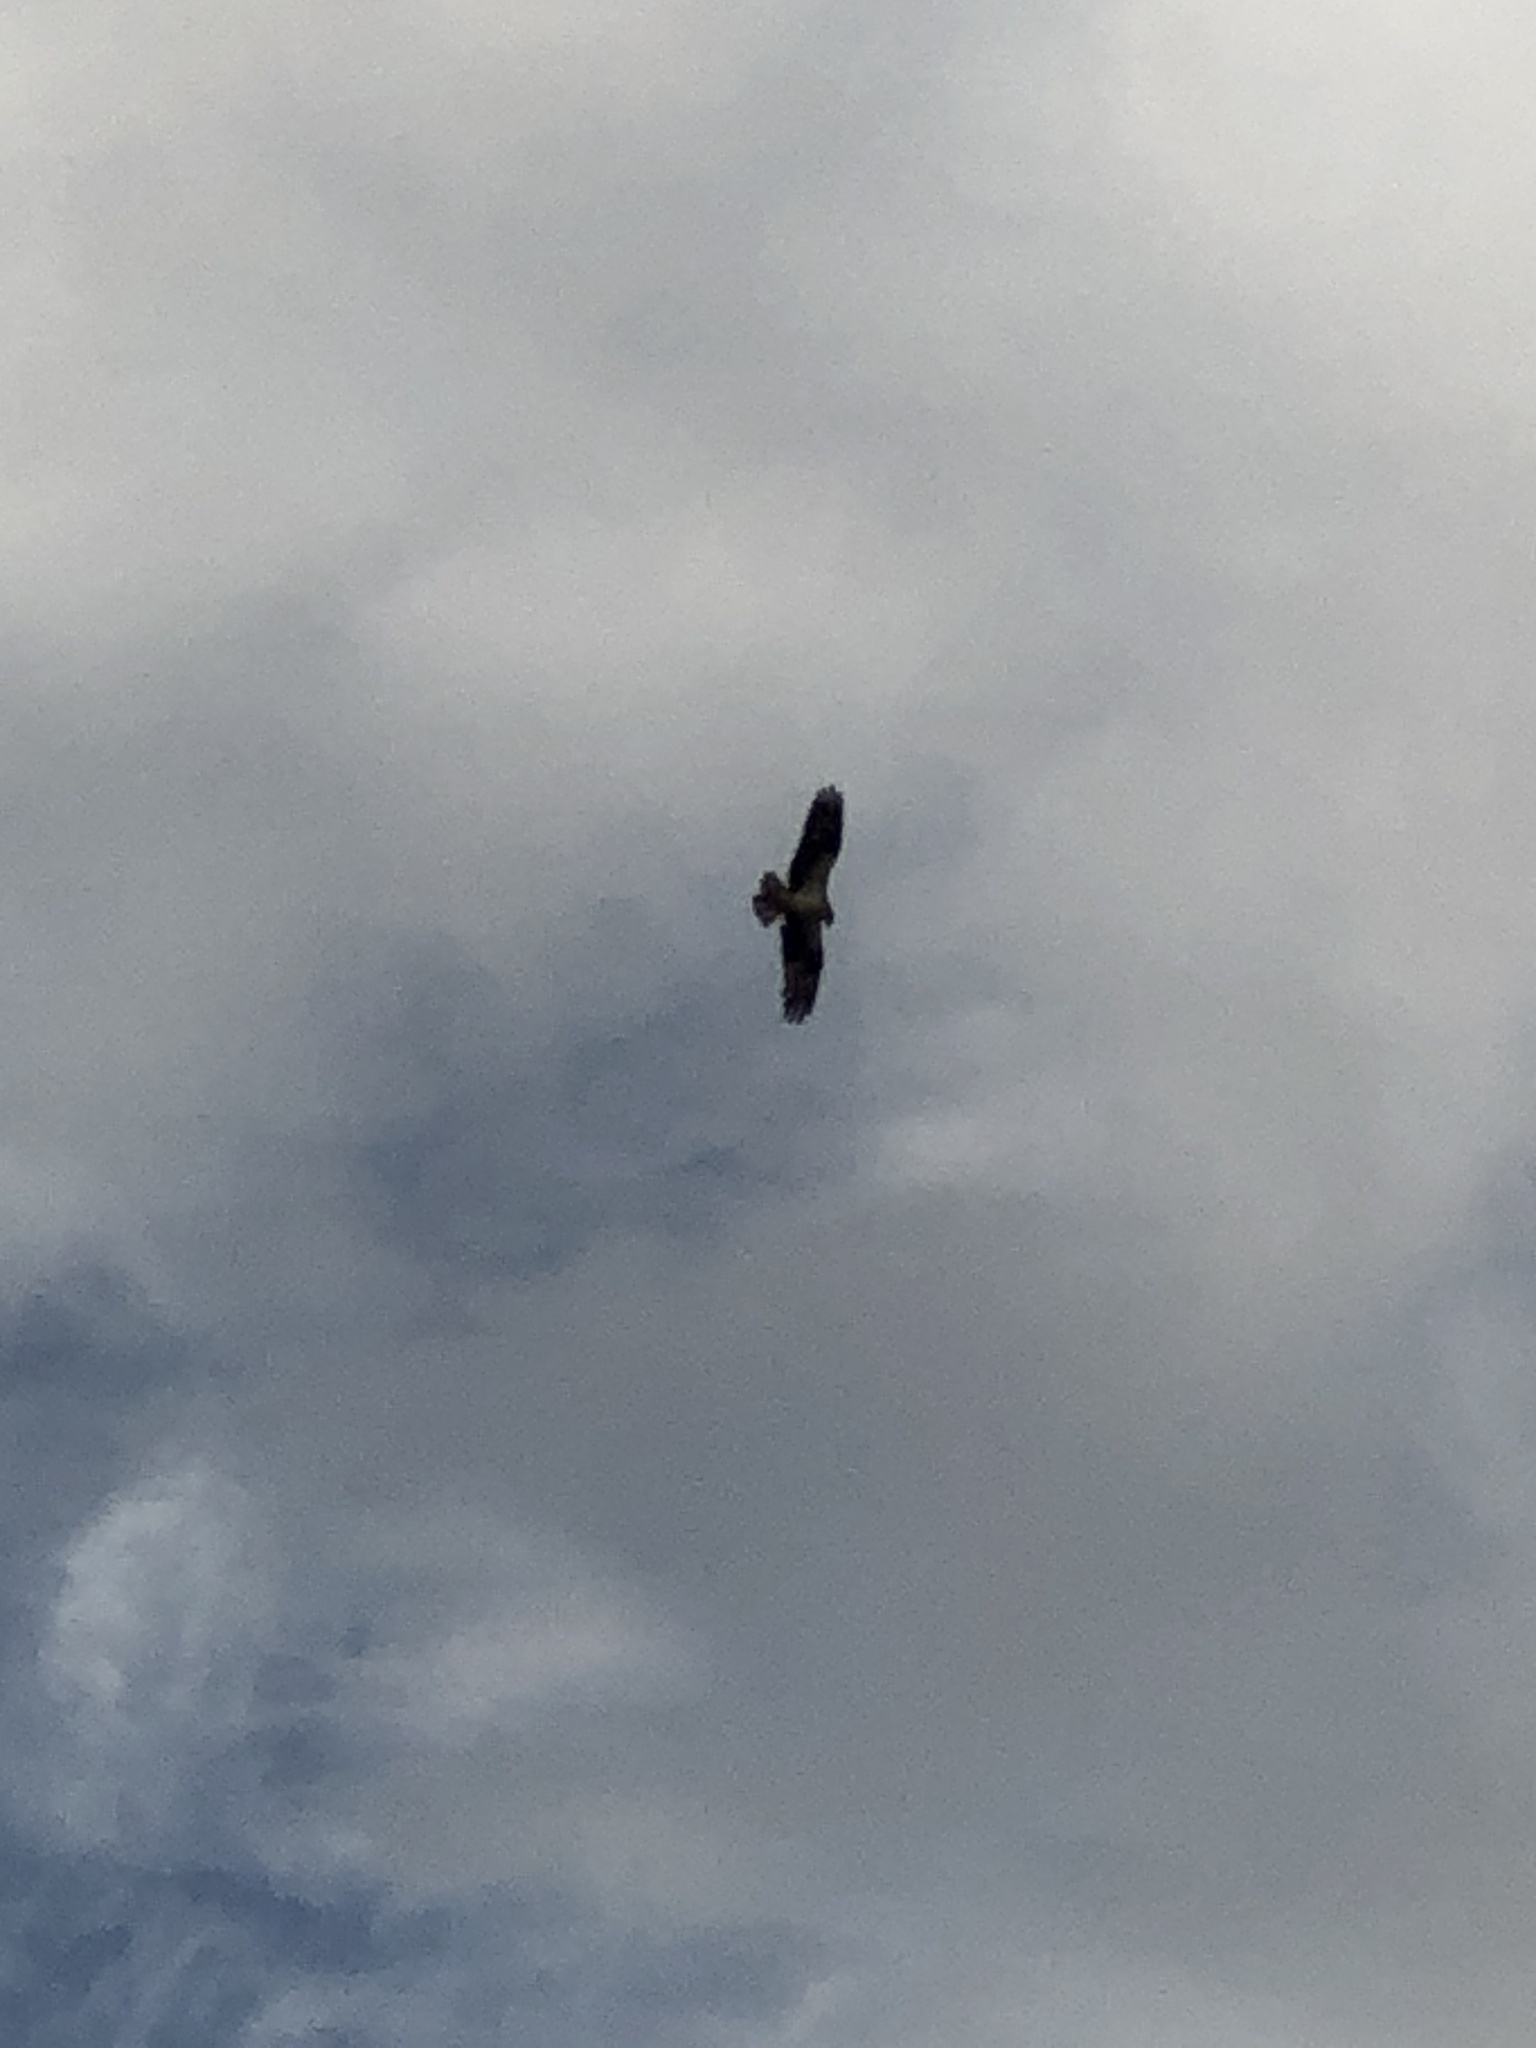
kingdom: Animalia
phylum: Chordata
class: Aves
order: Accipitriformes
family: Pandionidae
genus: Pandion
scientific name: Pandion haliaetus
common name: Osprey
